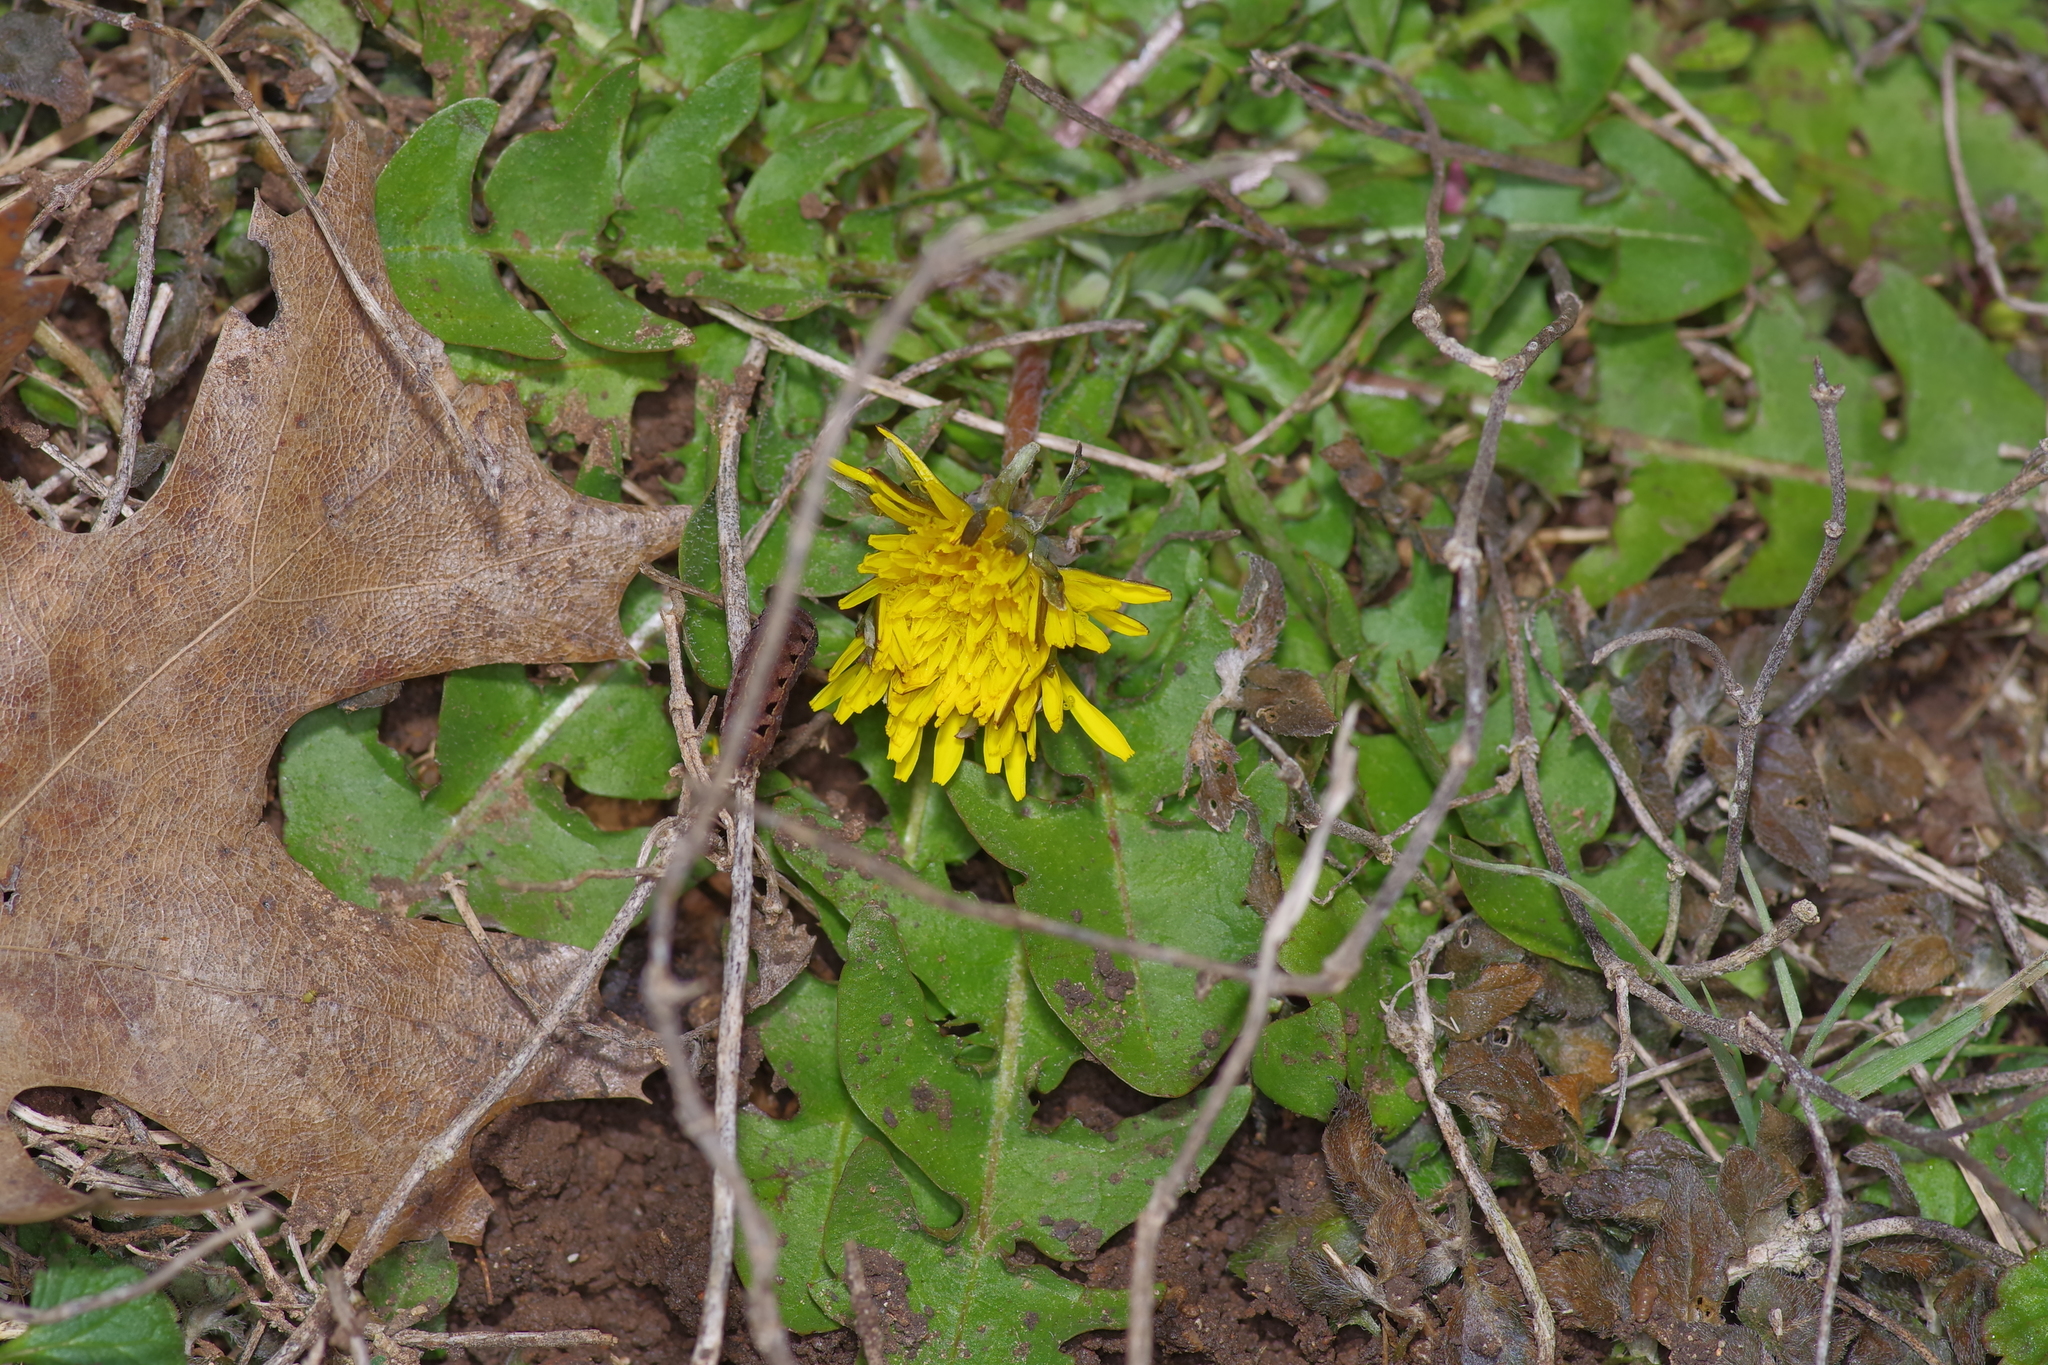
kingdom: Plantae
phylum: Tracheophyta
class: Magnoliopsida
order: Asterales
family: Asteraceae
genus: Taraxacum
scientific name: Taraxacum officinale
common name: Common dandelion
